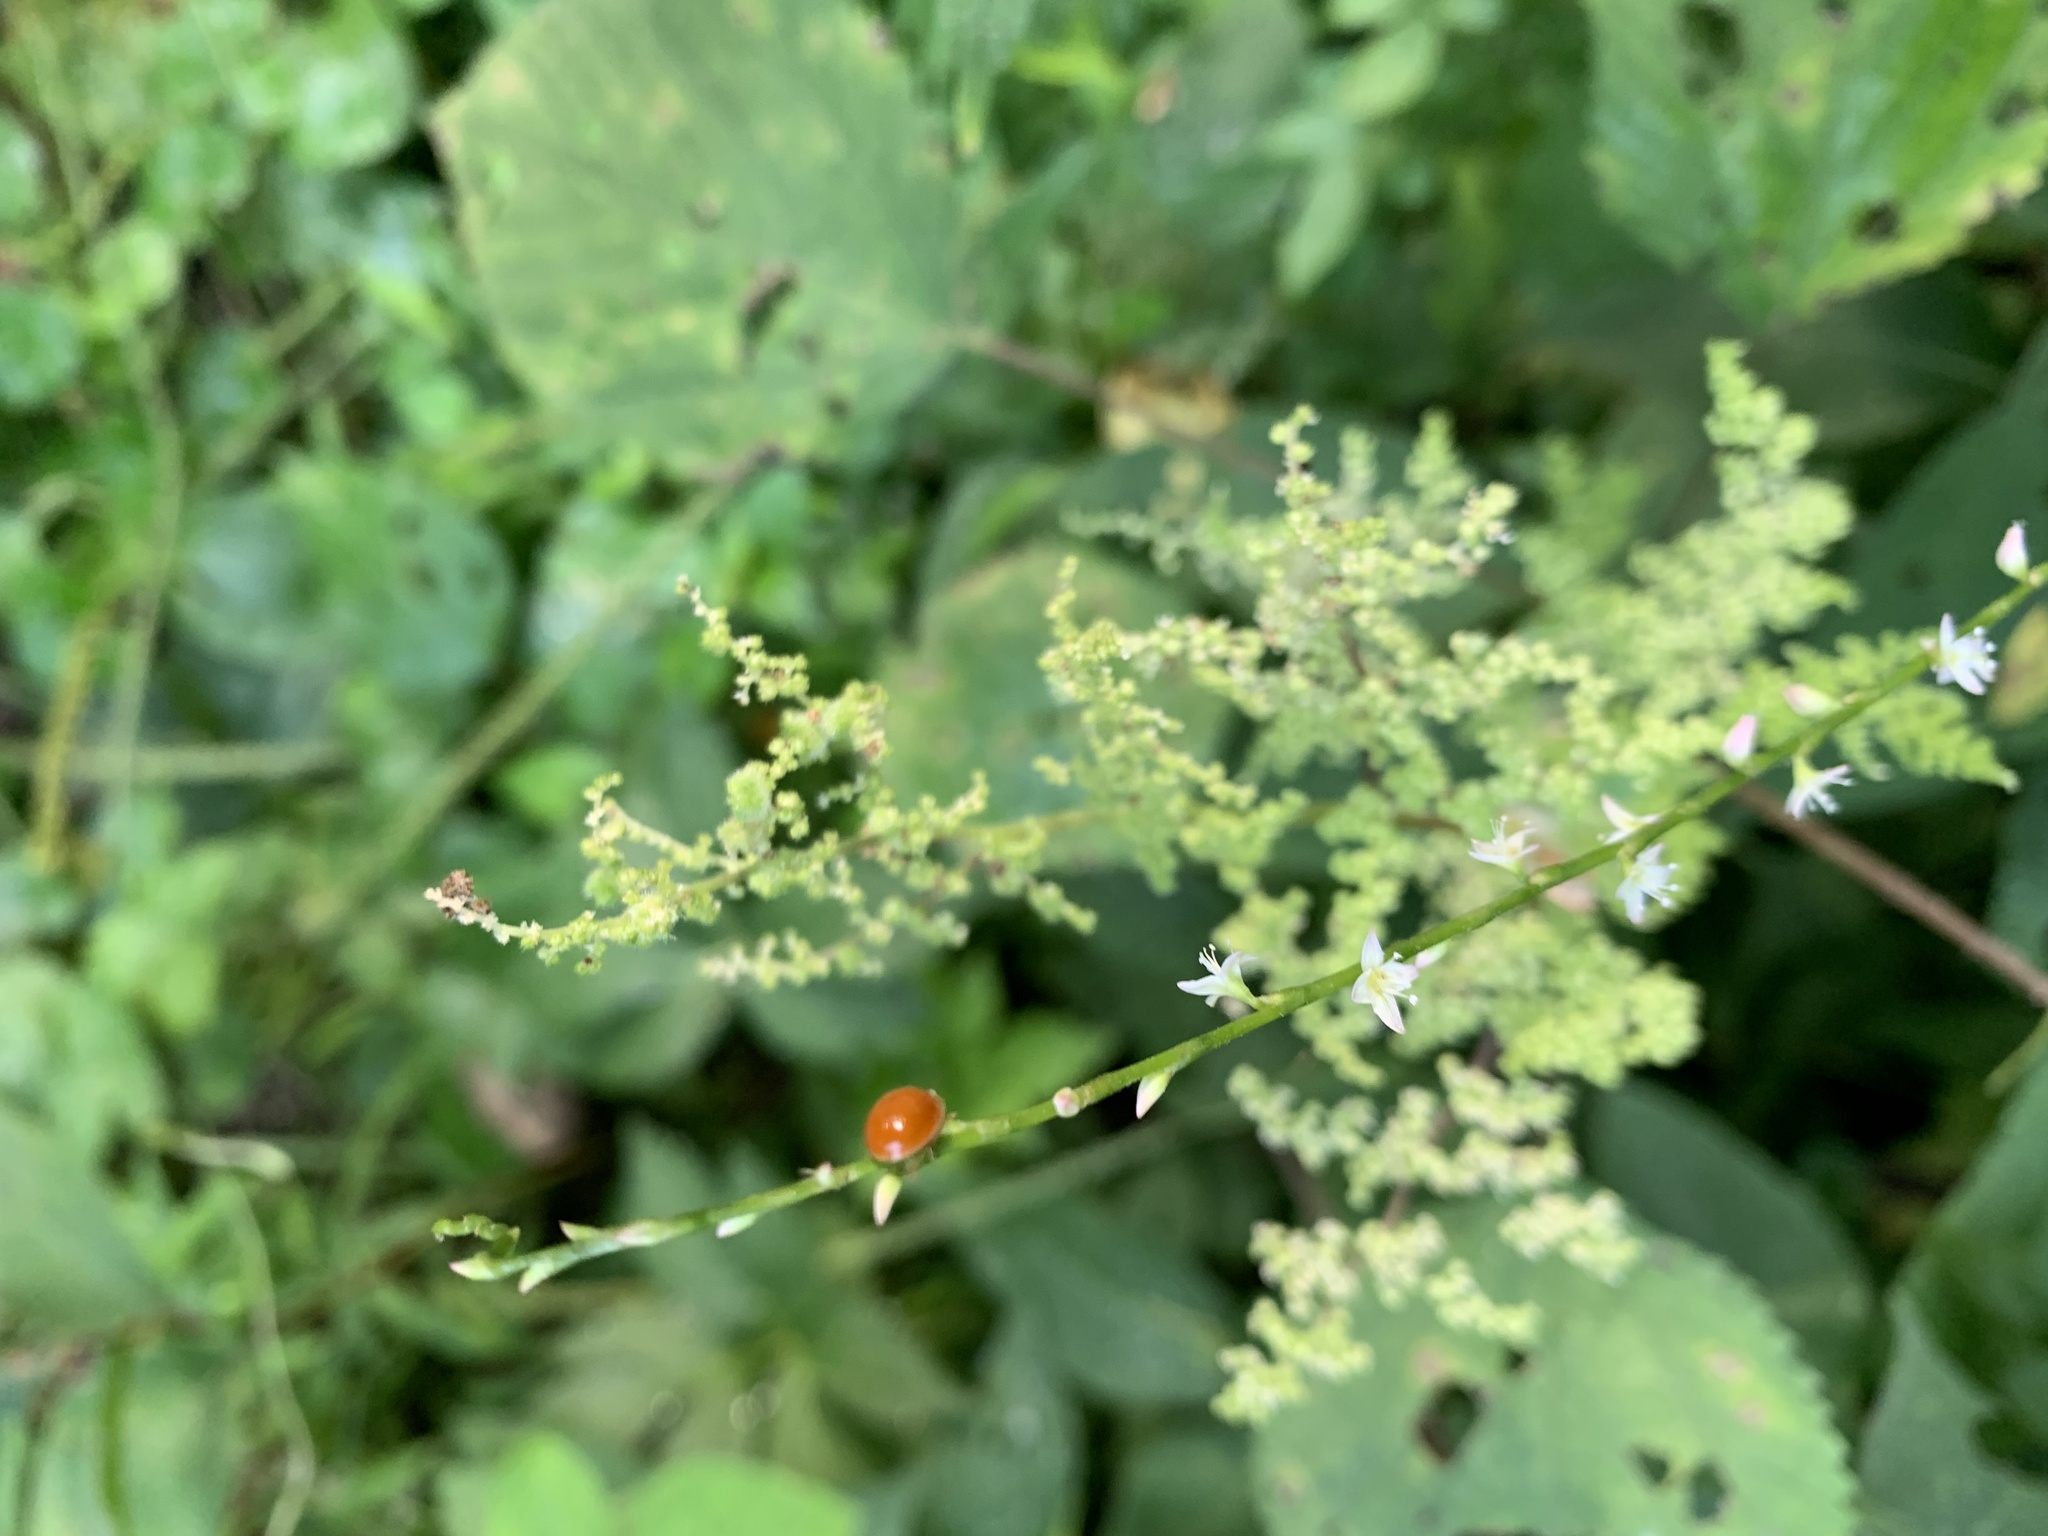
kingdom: Animalia
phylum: Arthropoda
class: Insecta
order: Coleoptera
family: Coccinellidae
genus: Cycloneda
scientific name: Cycloneda munda
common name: Polished lady beetle
